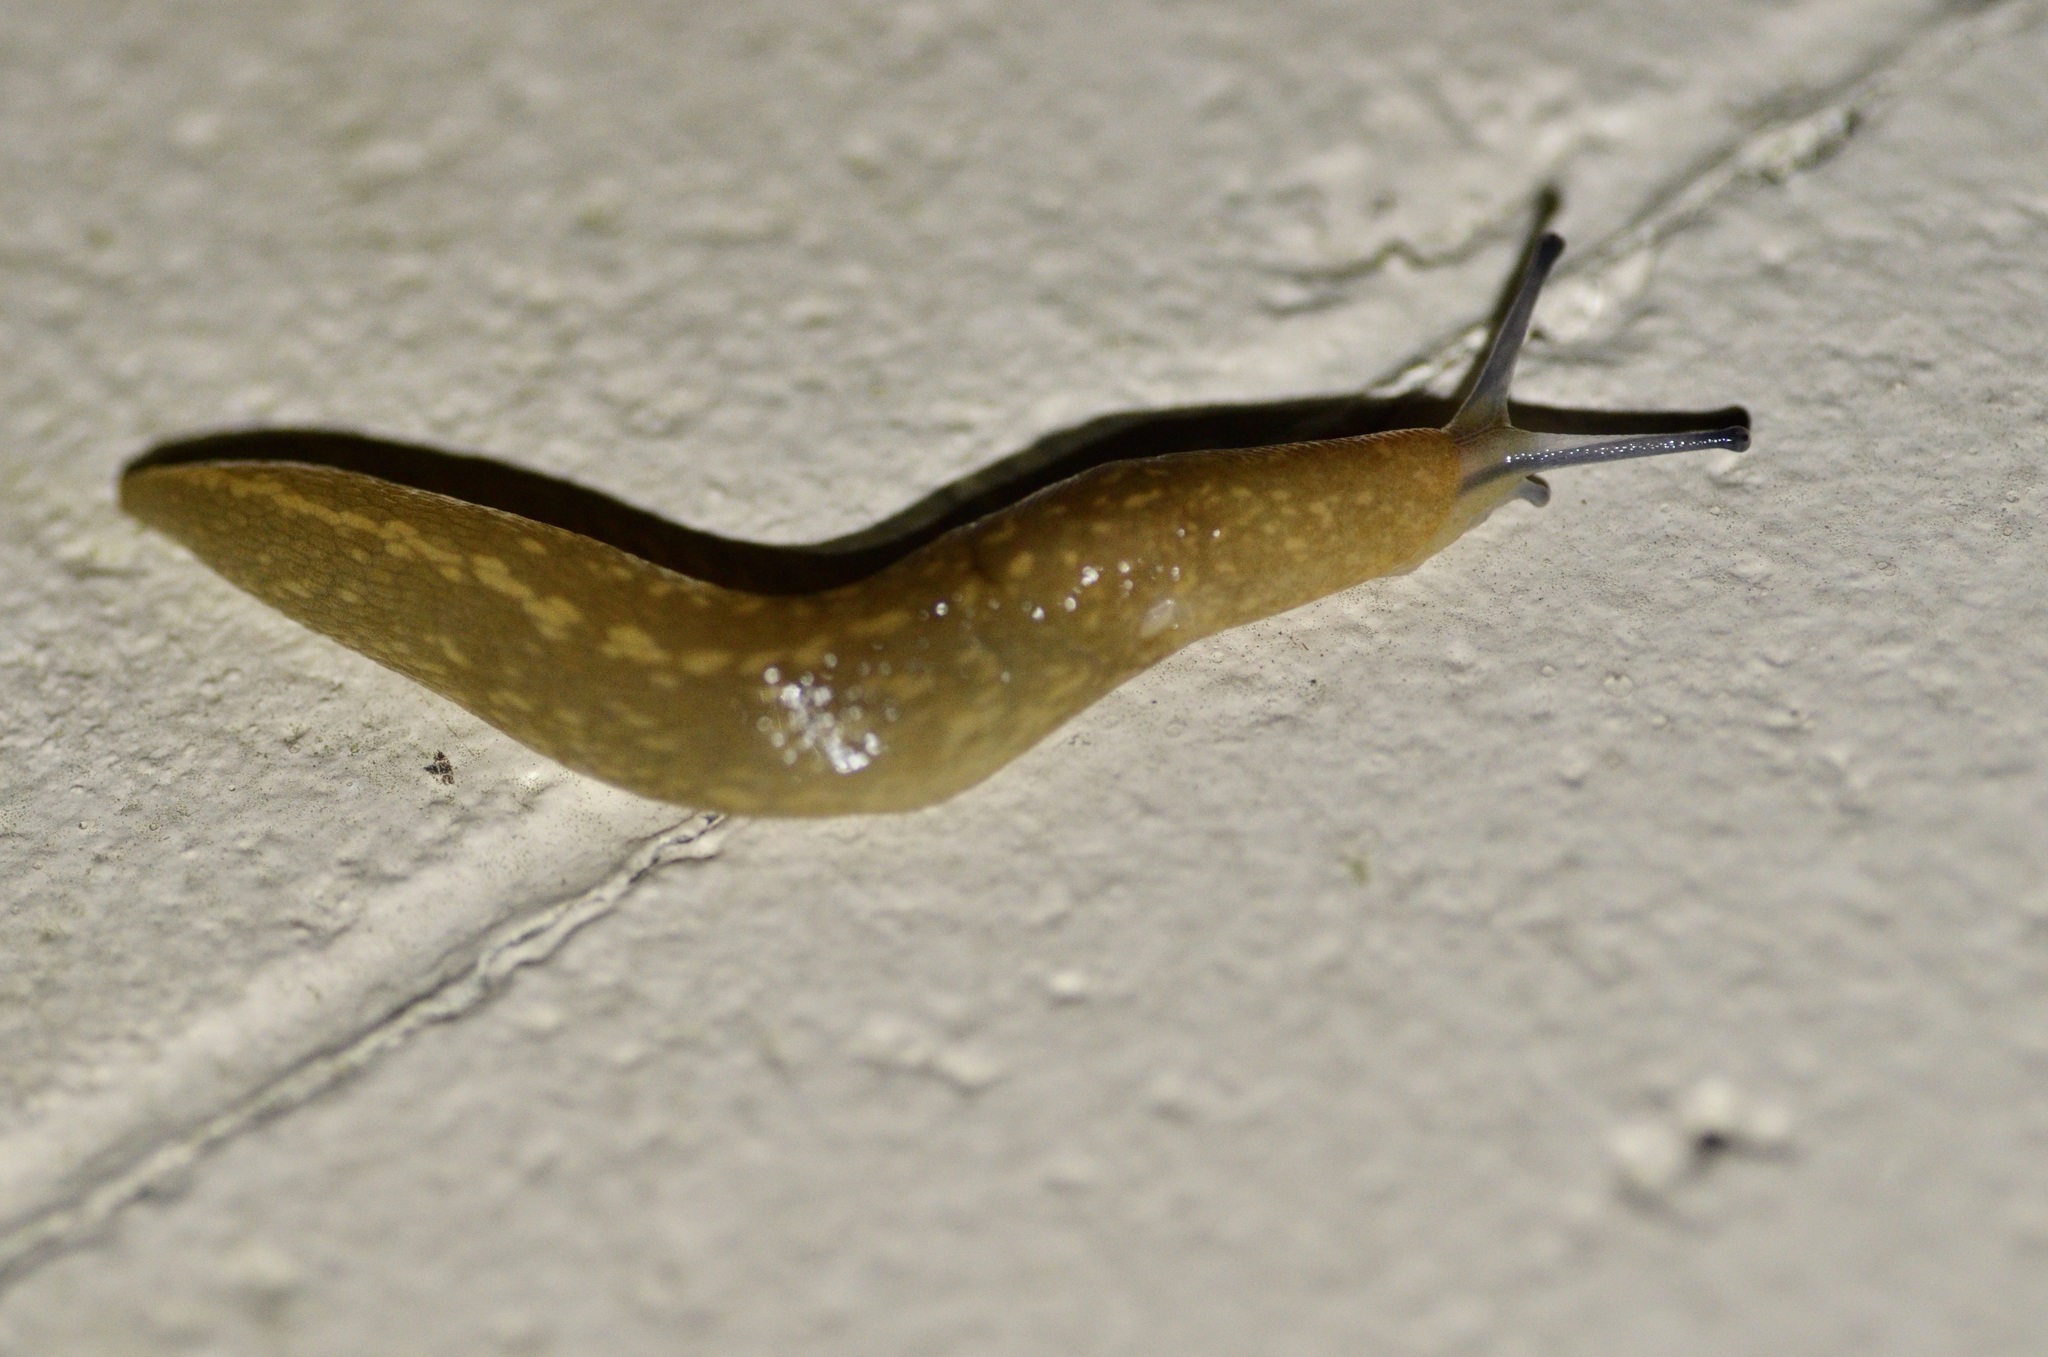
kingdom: Animalia
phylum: Mollusca
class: Gastropoda
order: Stylommatophora
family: Limacidae
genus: Limacus
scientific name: Limacus flavus
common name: Yellow gardenslug
